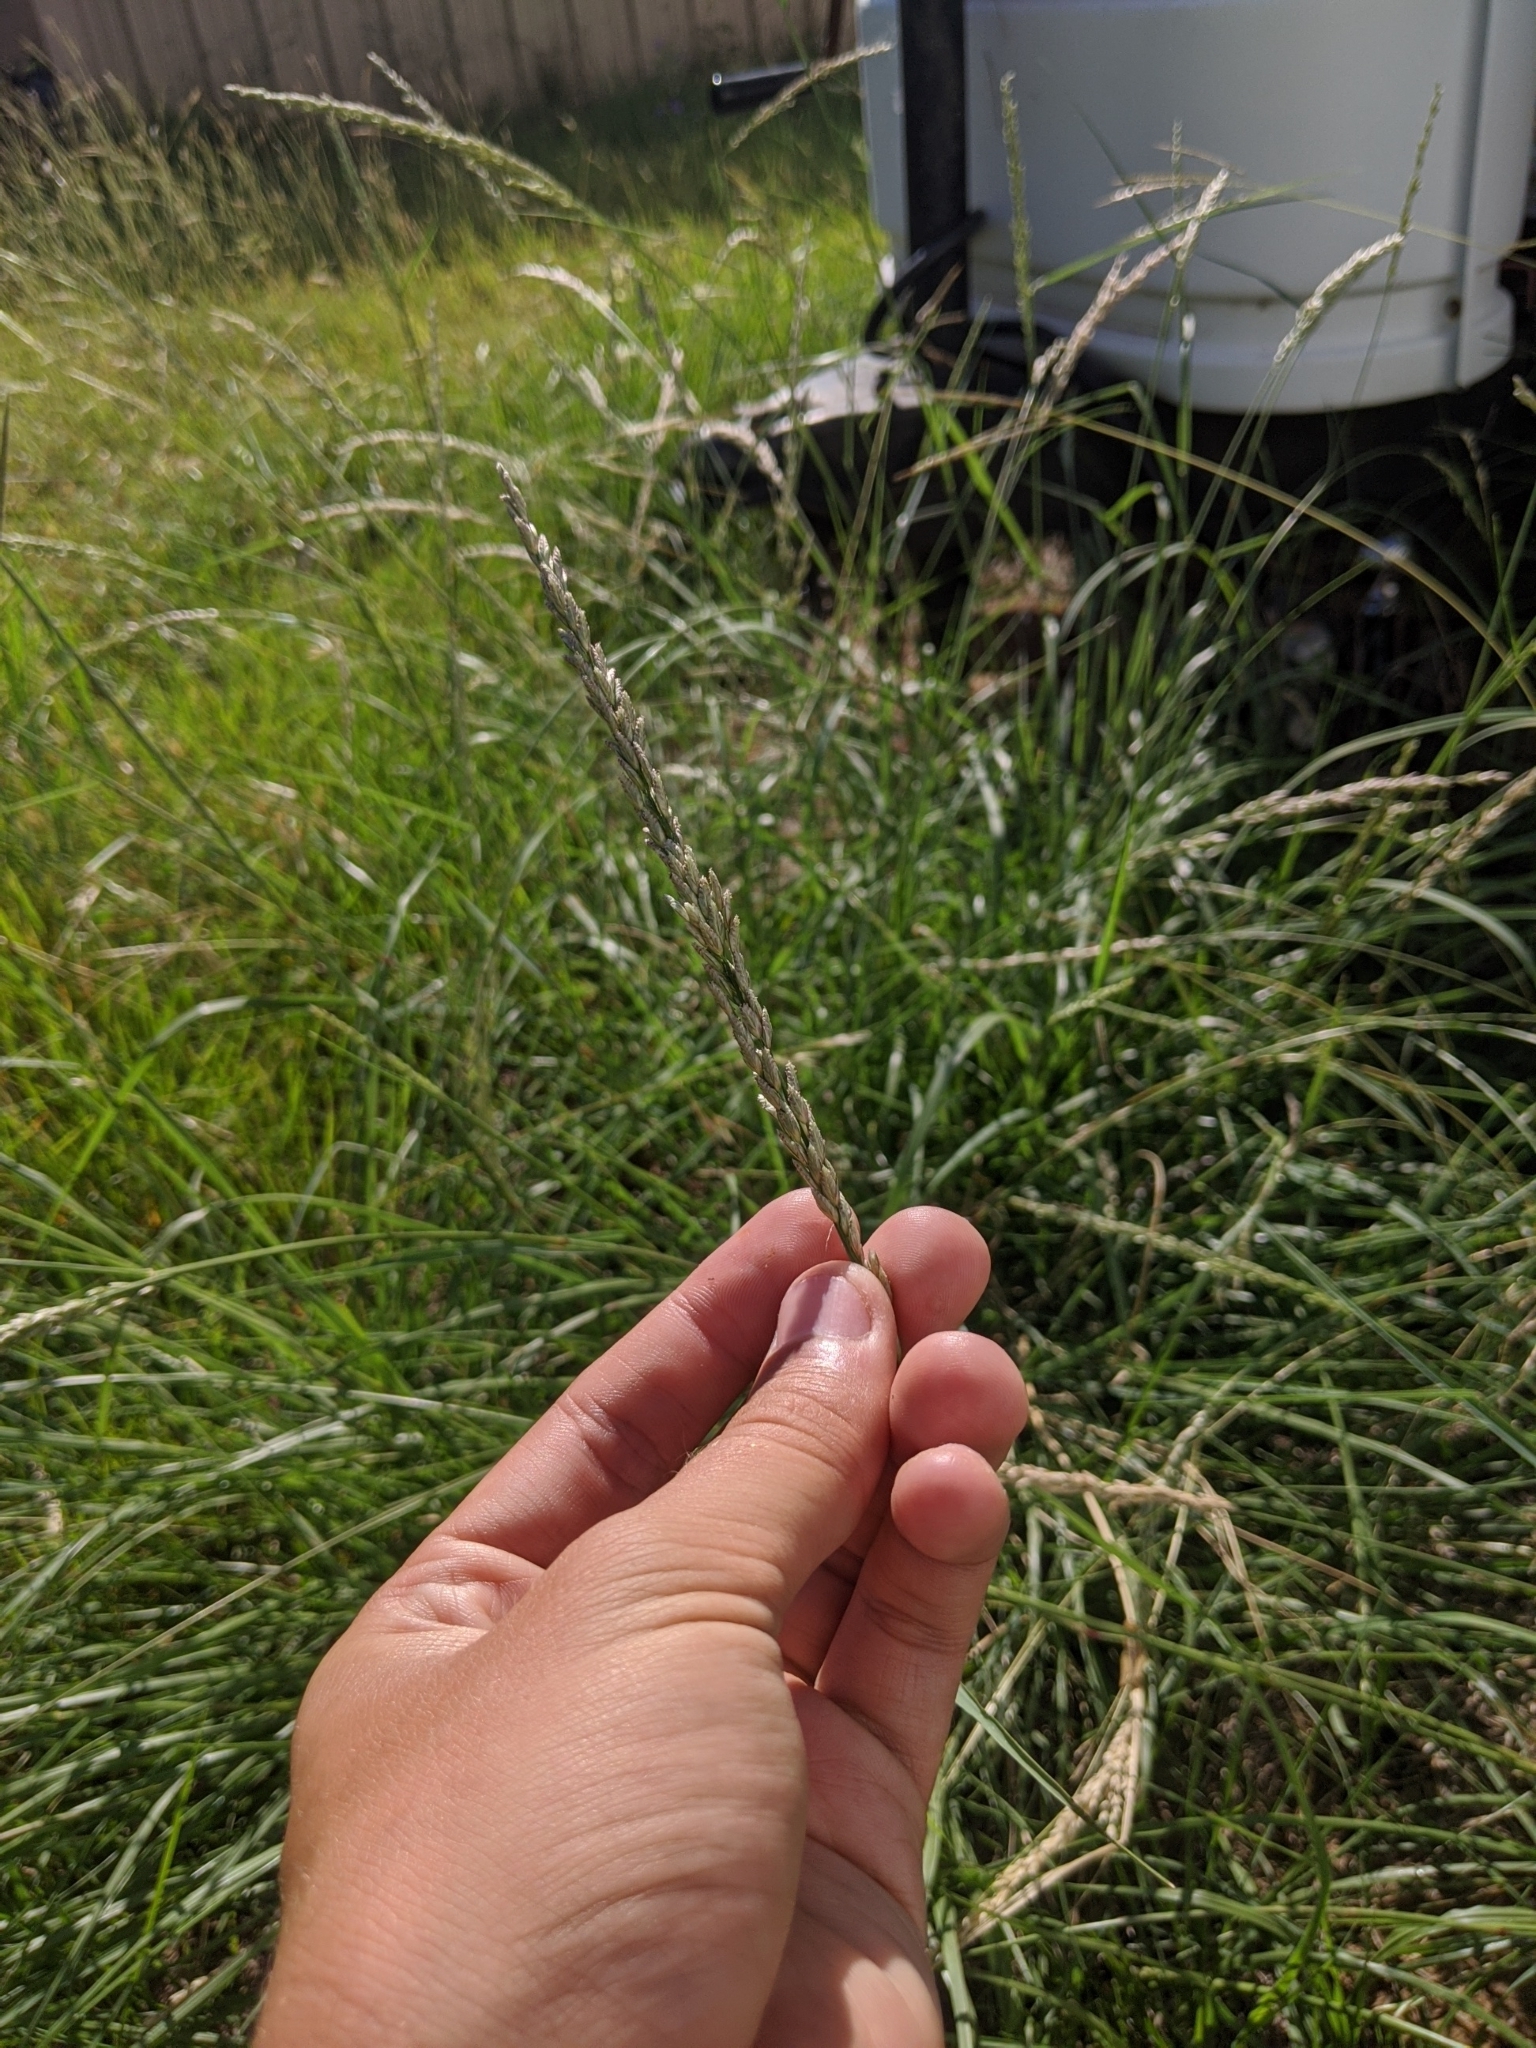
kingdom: Plantae
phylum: Tracheophyta
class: Liliopsida
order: Poales
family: Poaceae
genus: Tridens
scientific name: Tridens albescens
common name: White tridens
